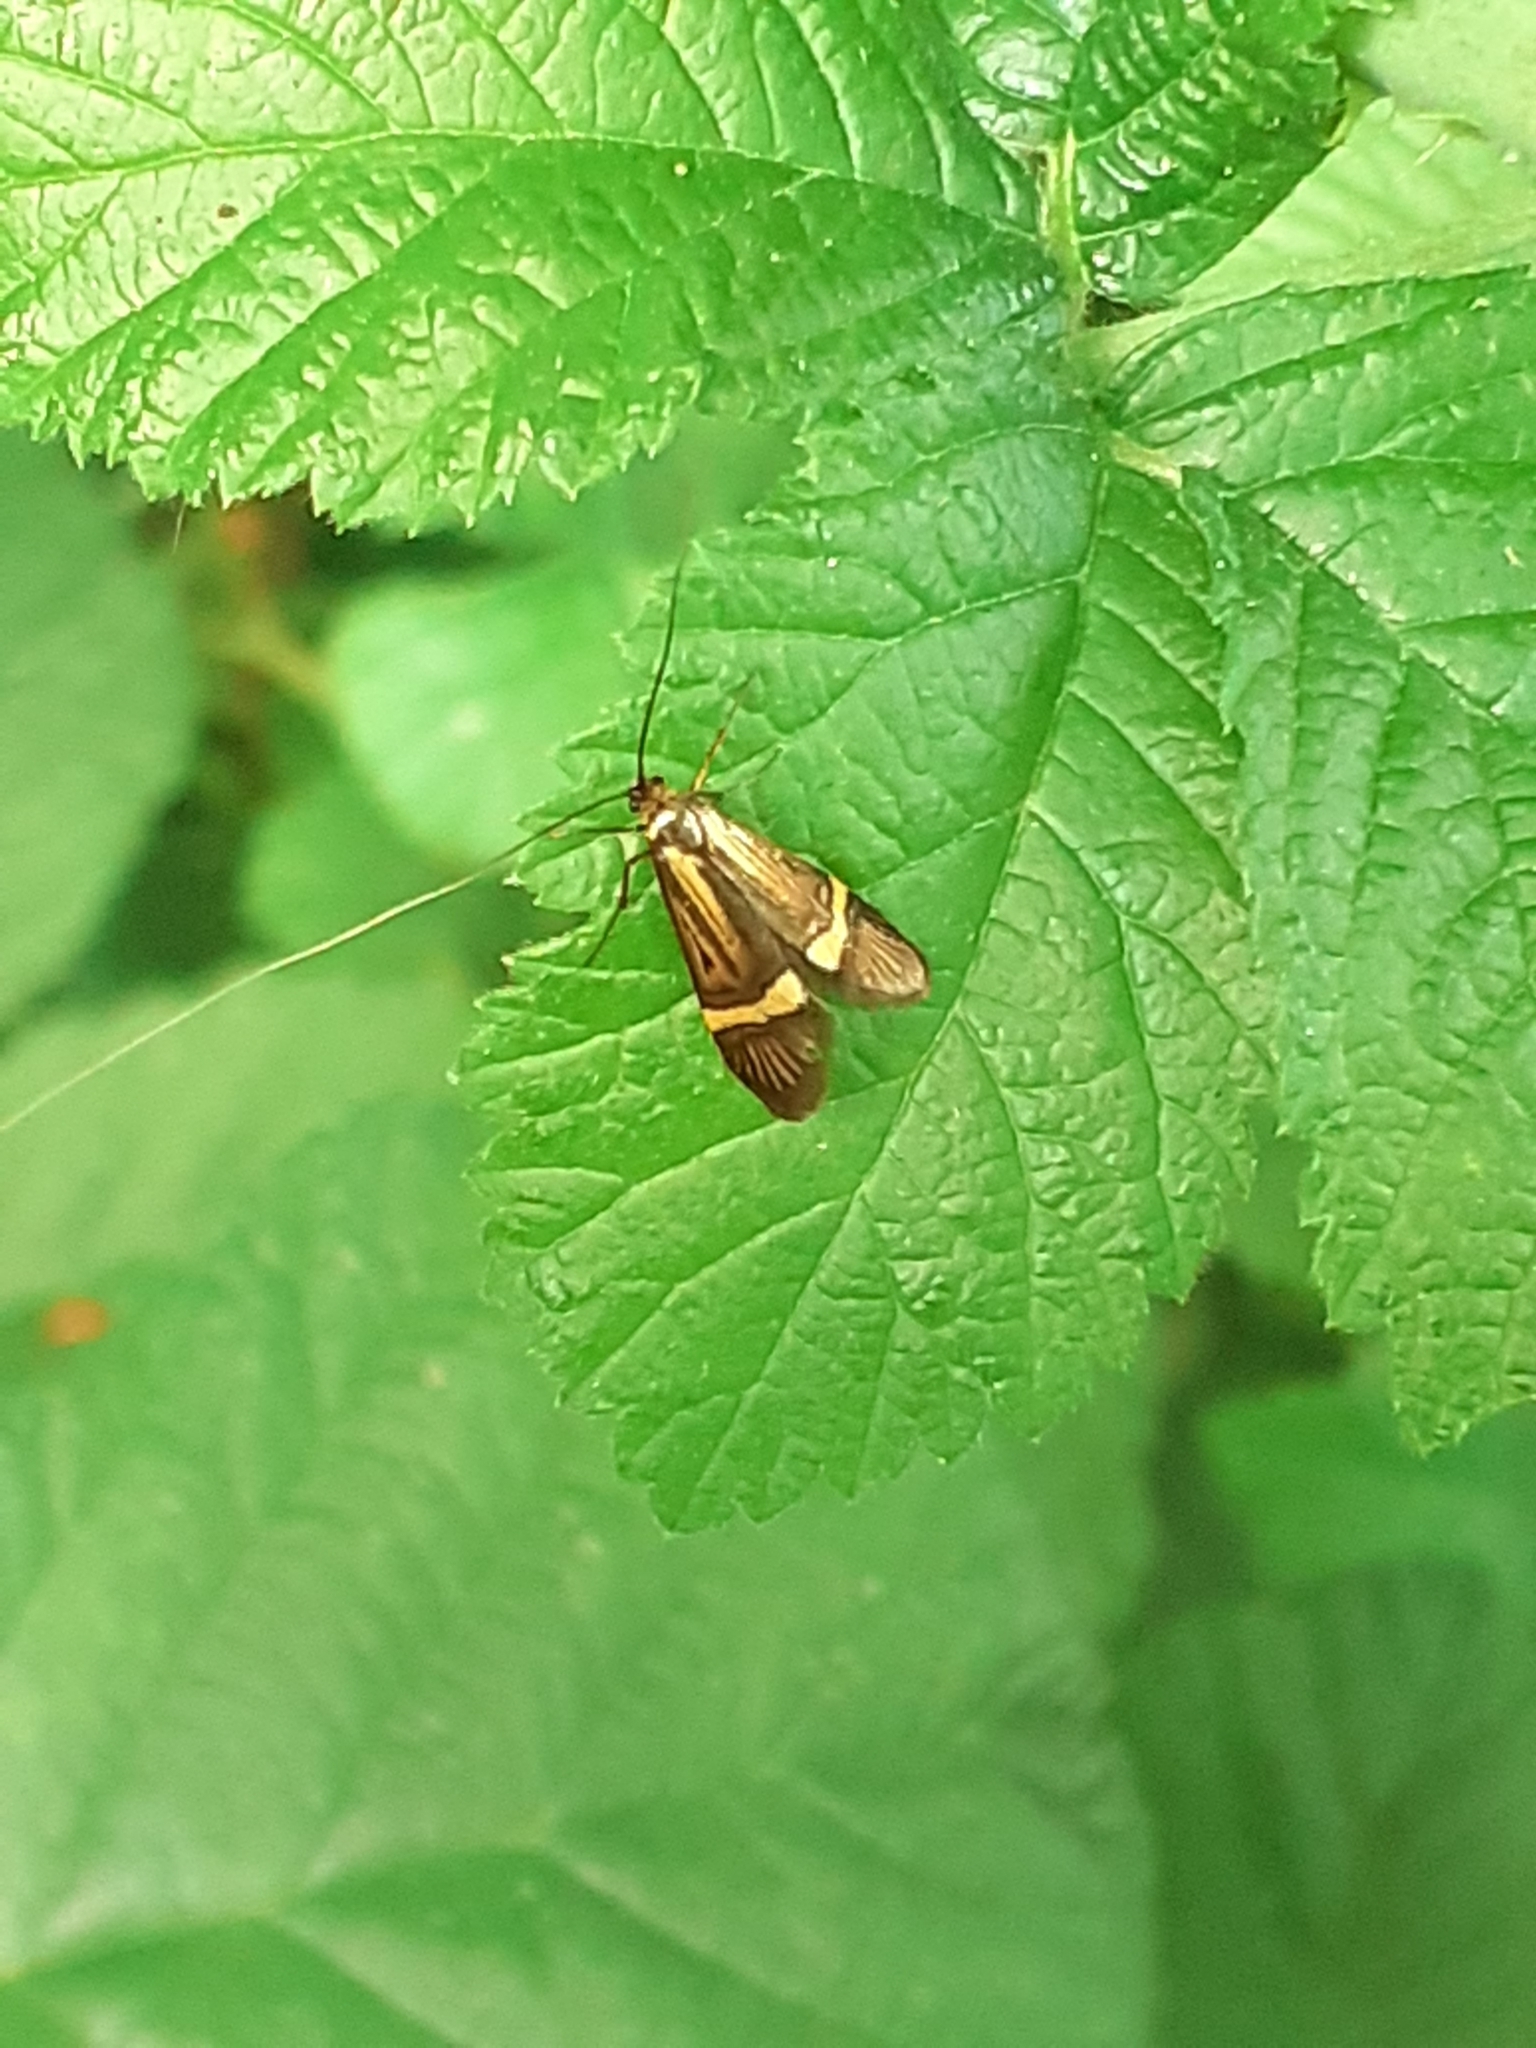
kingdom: Animalia
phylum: Arthropoda
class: Insecta
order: Lepidoptera
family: Adelidae
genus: Nemophora
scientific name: Nemophora degeerella
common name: Yellow-barred long-horn
